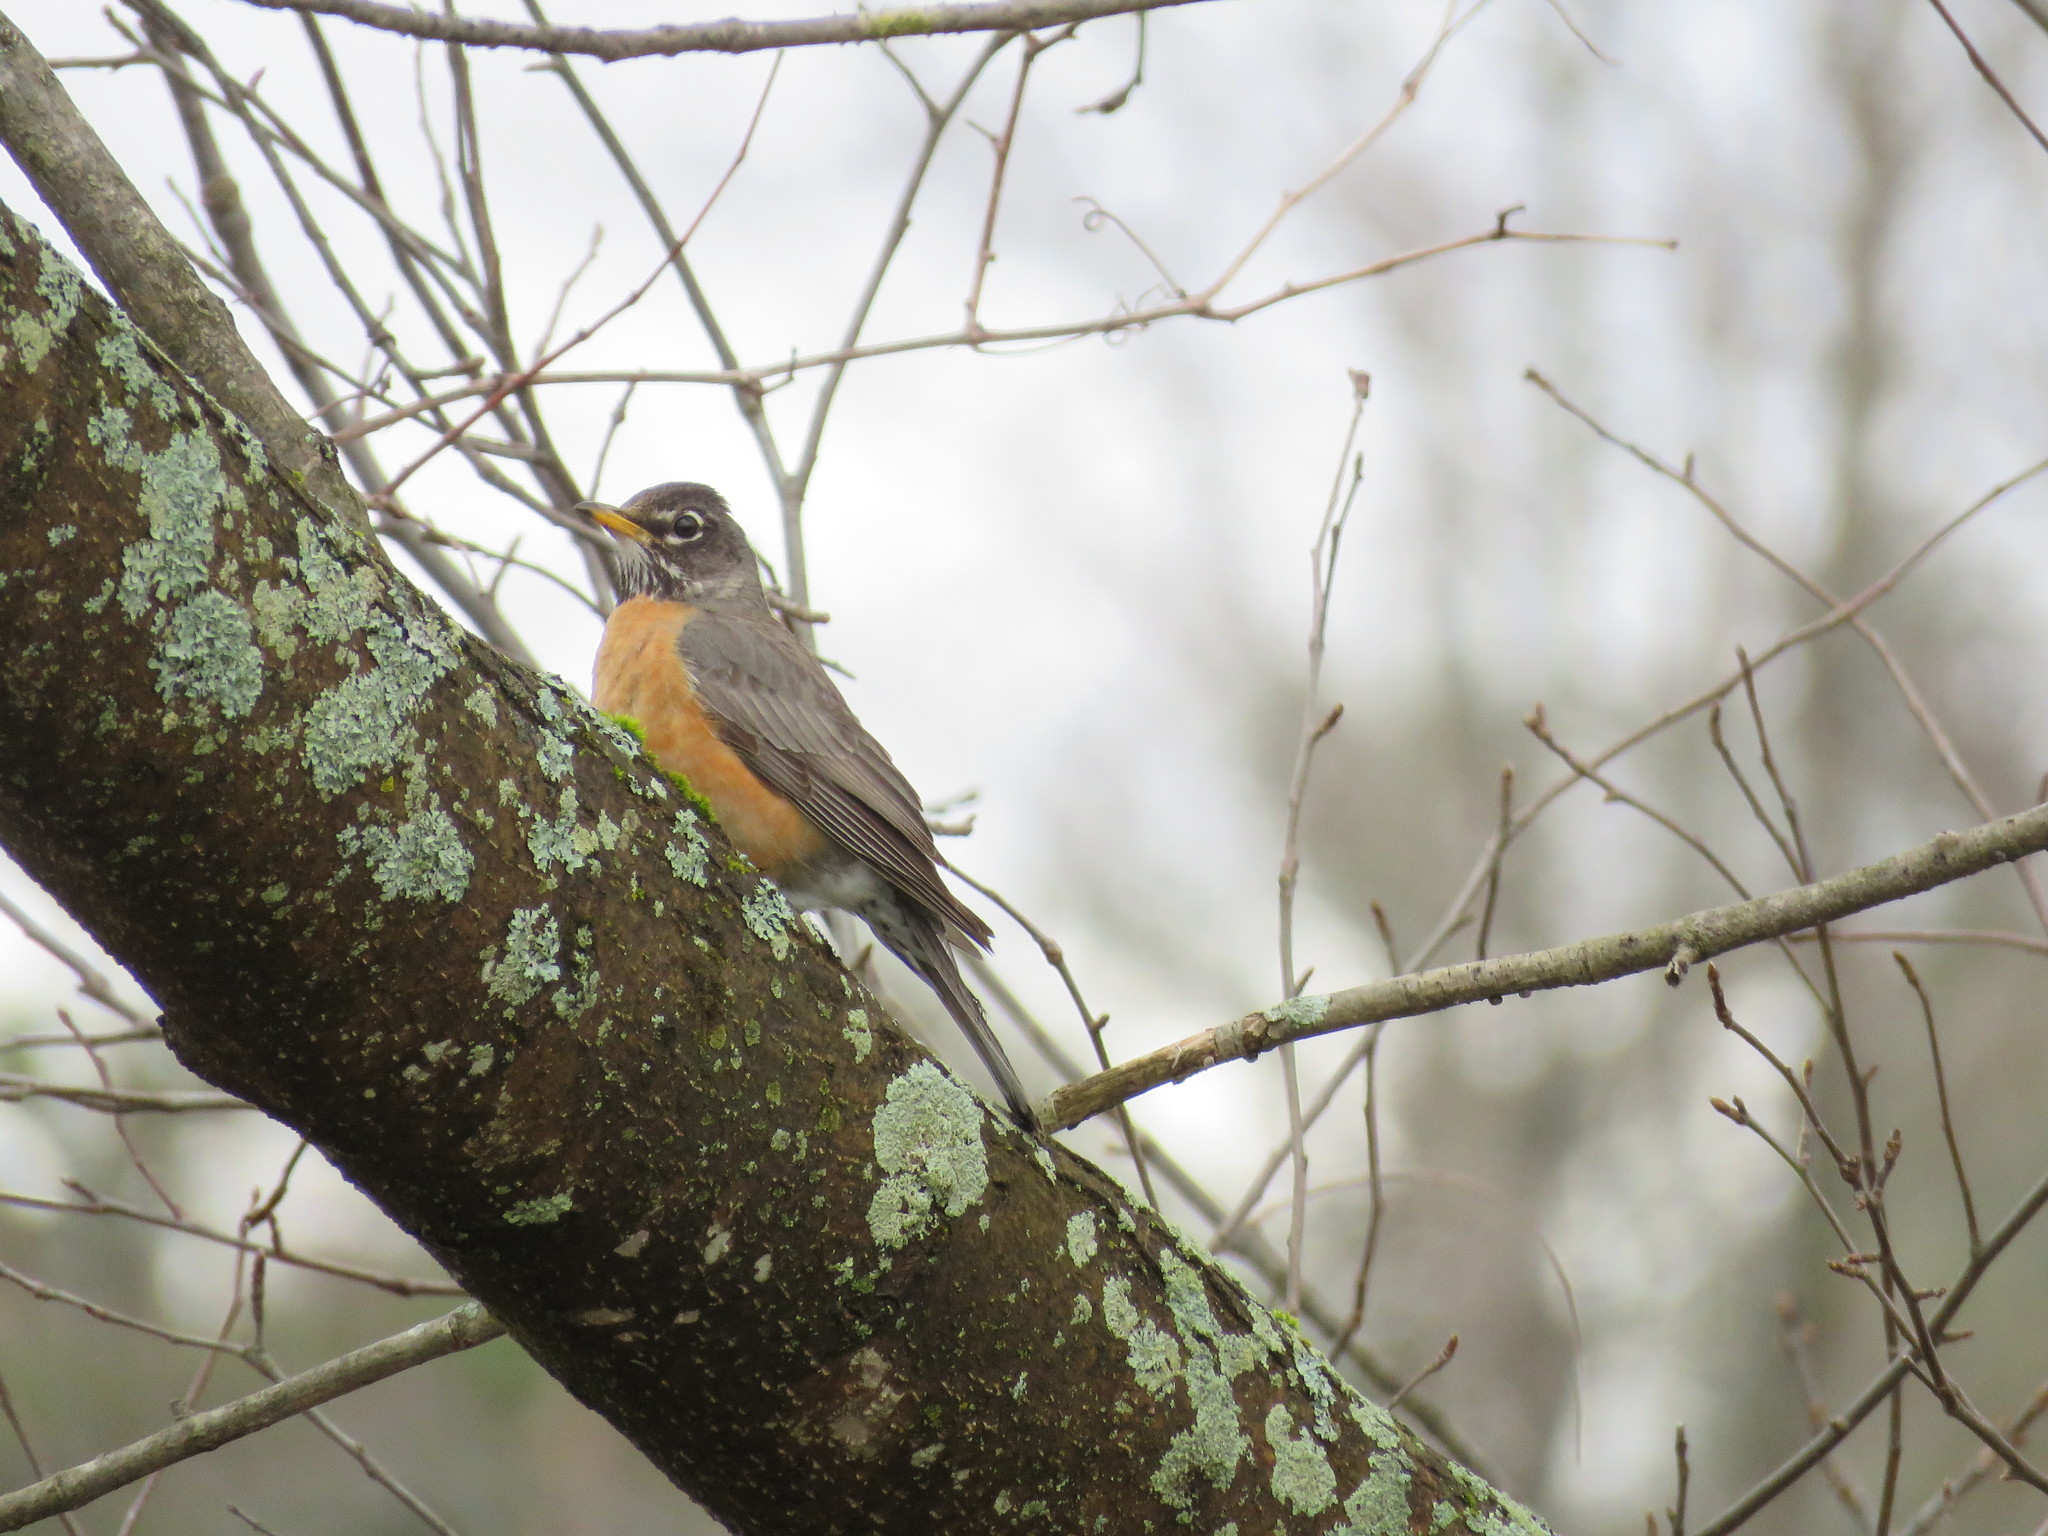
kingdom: Animalia
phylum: Chordata
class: Aves
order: Passeriformes
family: Turdidae
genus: Turdus
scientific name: Turdus migratorius
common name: American robin
